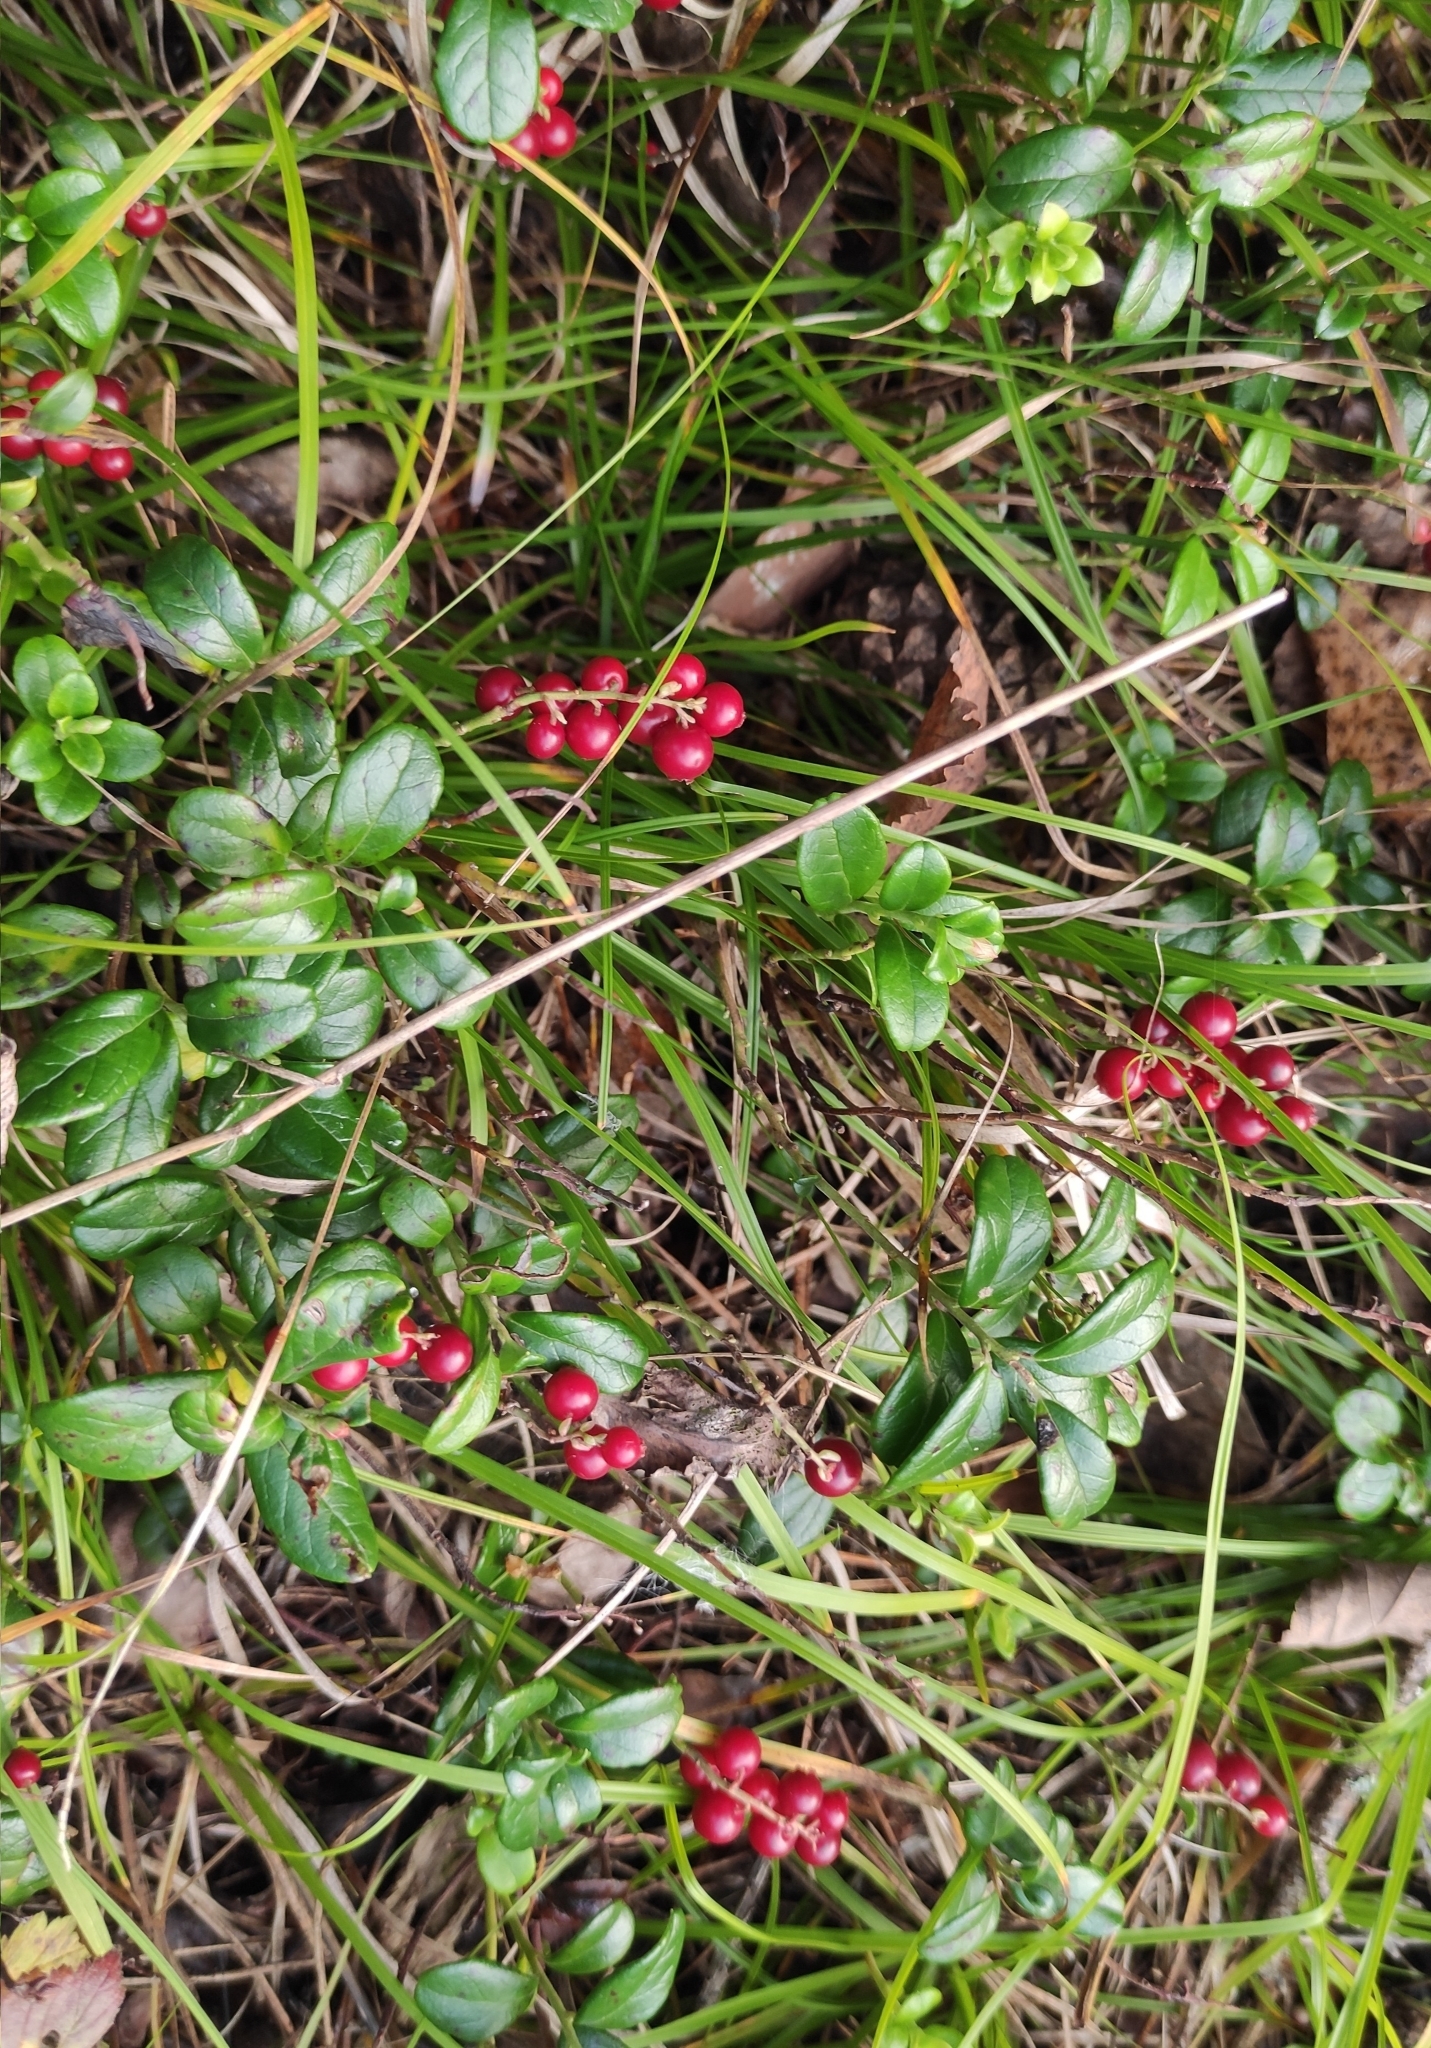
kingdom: Plantae
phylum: Tracheophyta
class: Magnoliopsida
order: Ericales
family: Ericaceae
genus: Vaccinium
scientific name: Vaccinium vitis-idaea
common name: Cowberry
